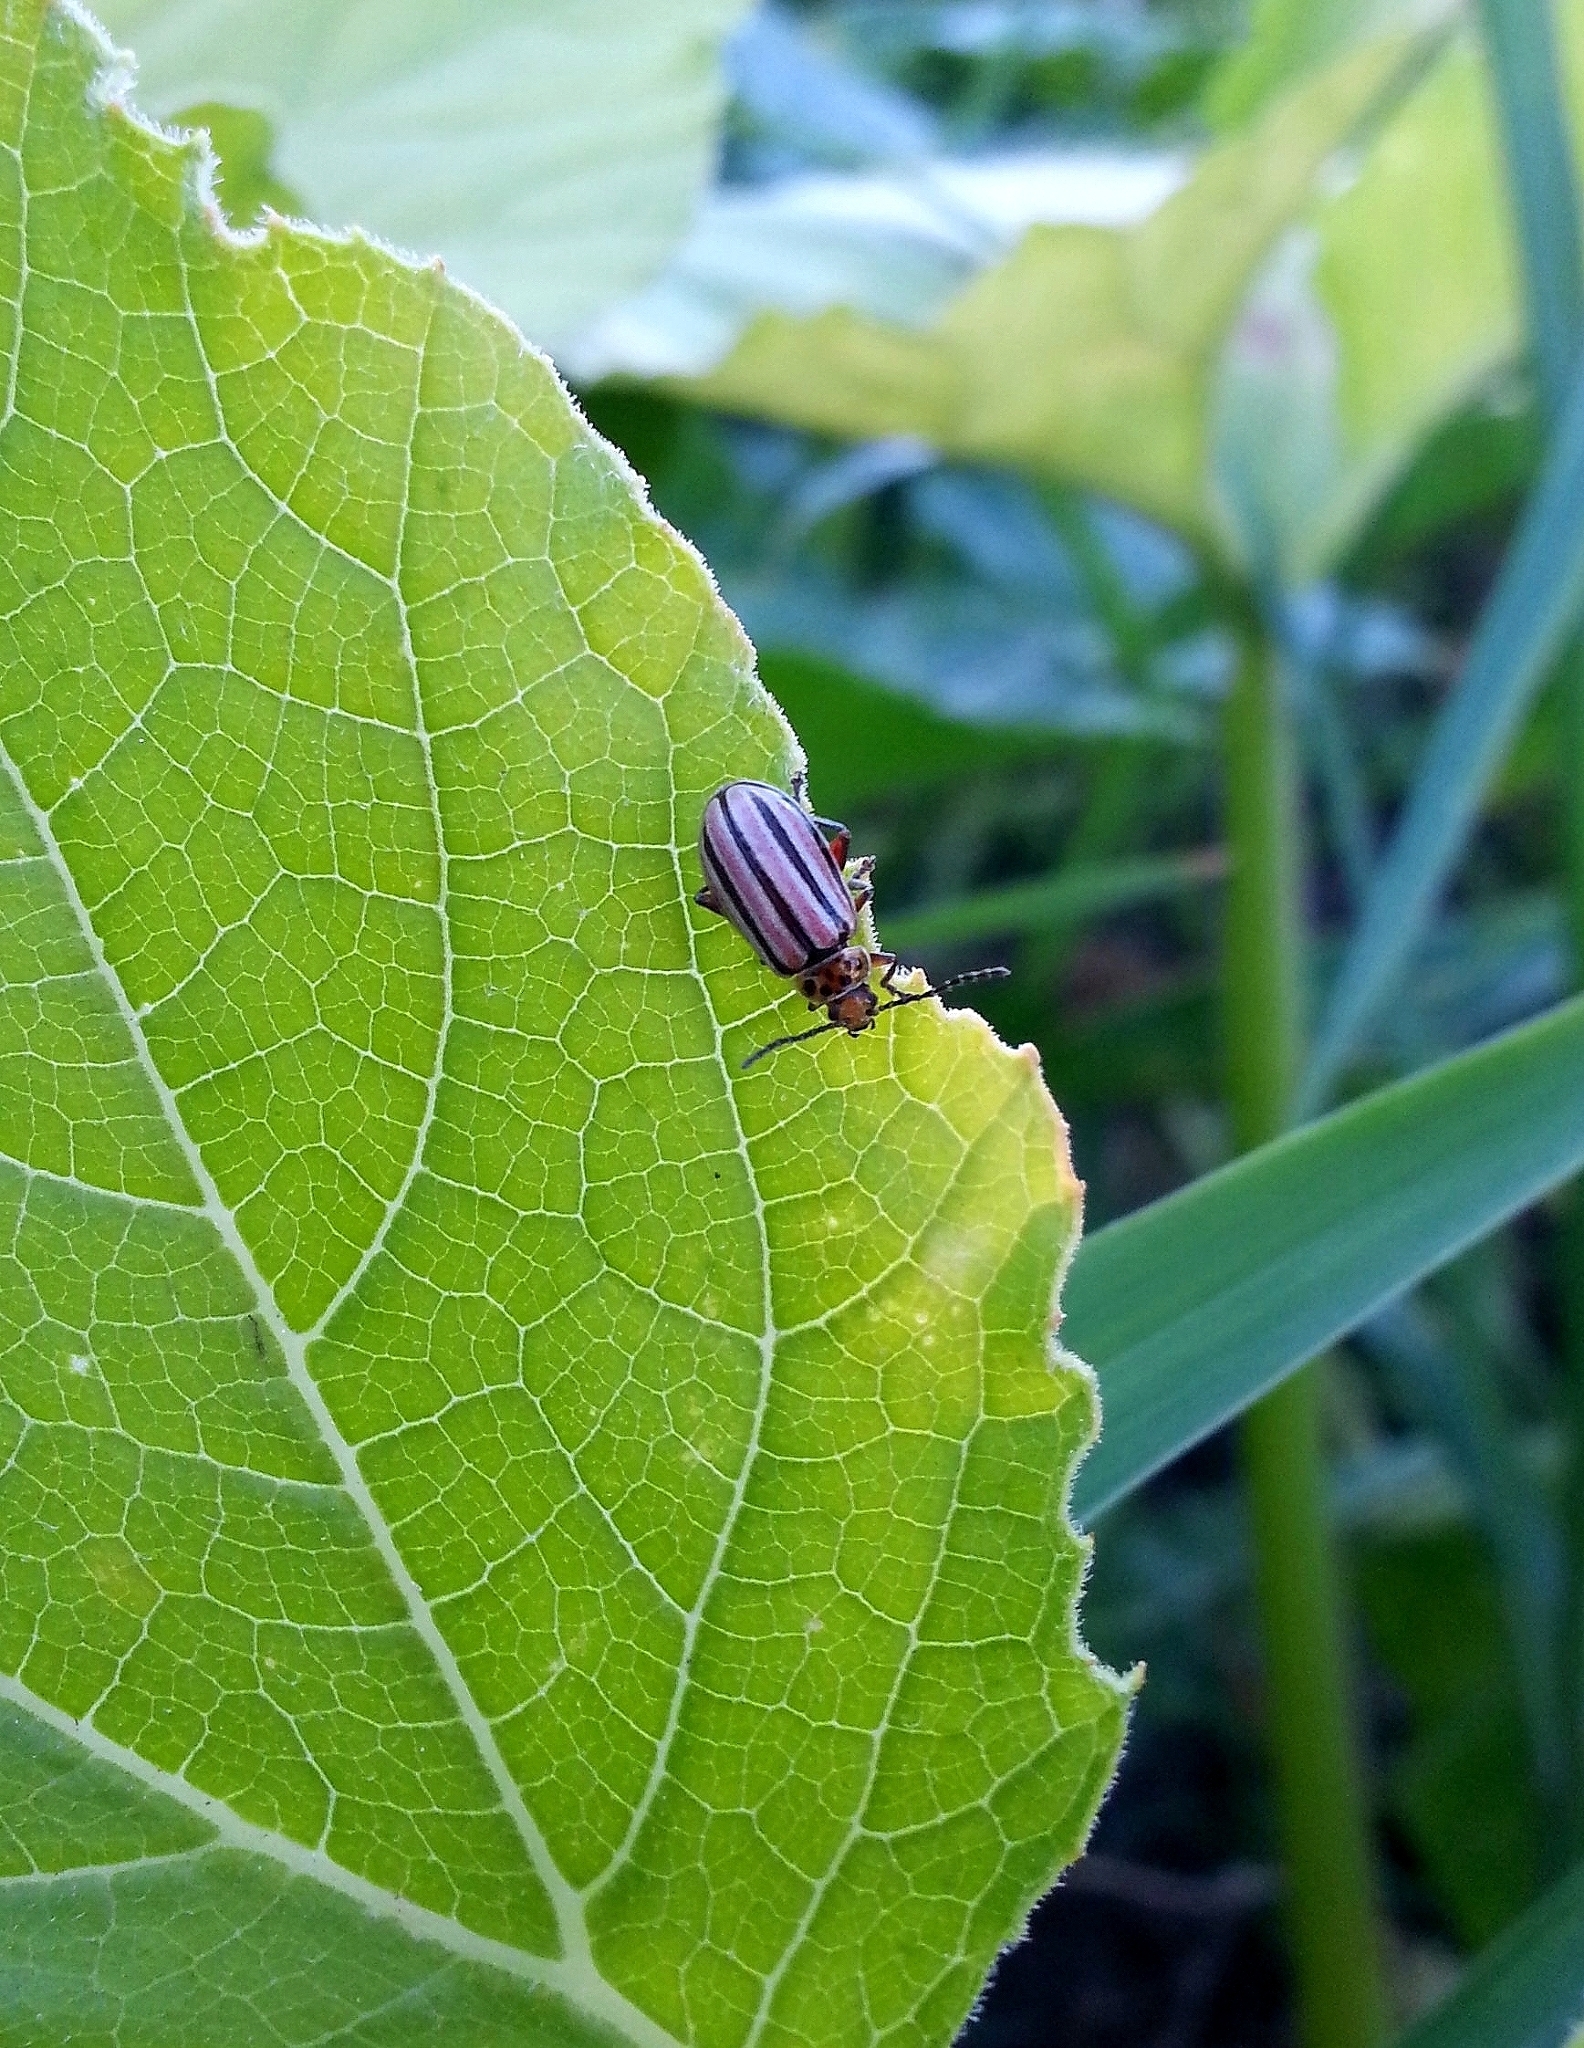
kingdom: Animalia
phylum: Arthropoda
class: Insecta
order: Coleoptera
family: Chrysomelidae
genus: Disonycha
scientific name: Disonycha
